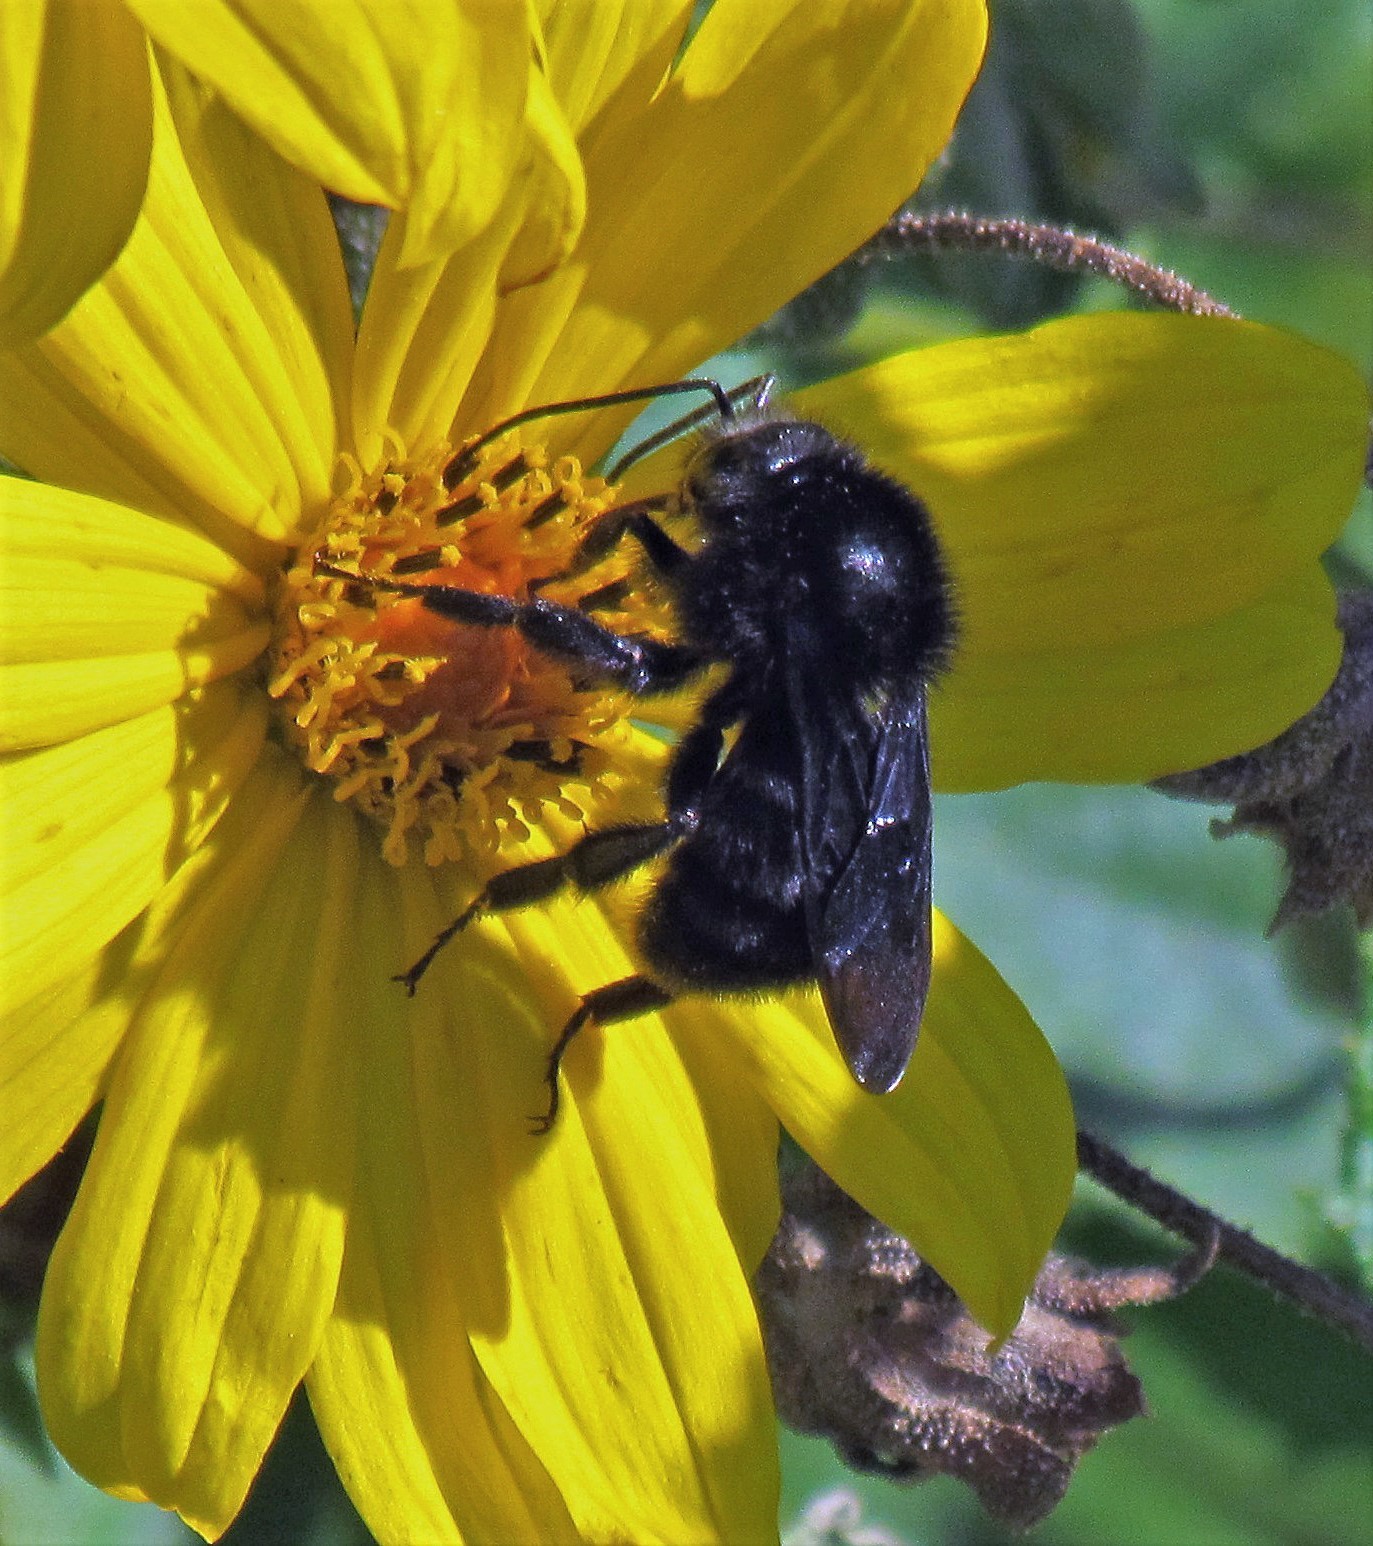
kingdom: Animalia
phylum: Arthropoda
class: Insecta
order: Hymenoptera
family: Apidae
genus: Bombus
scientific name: Bombus pauloensis
